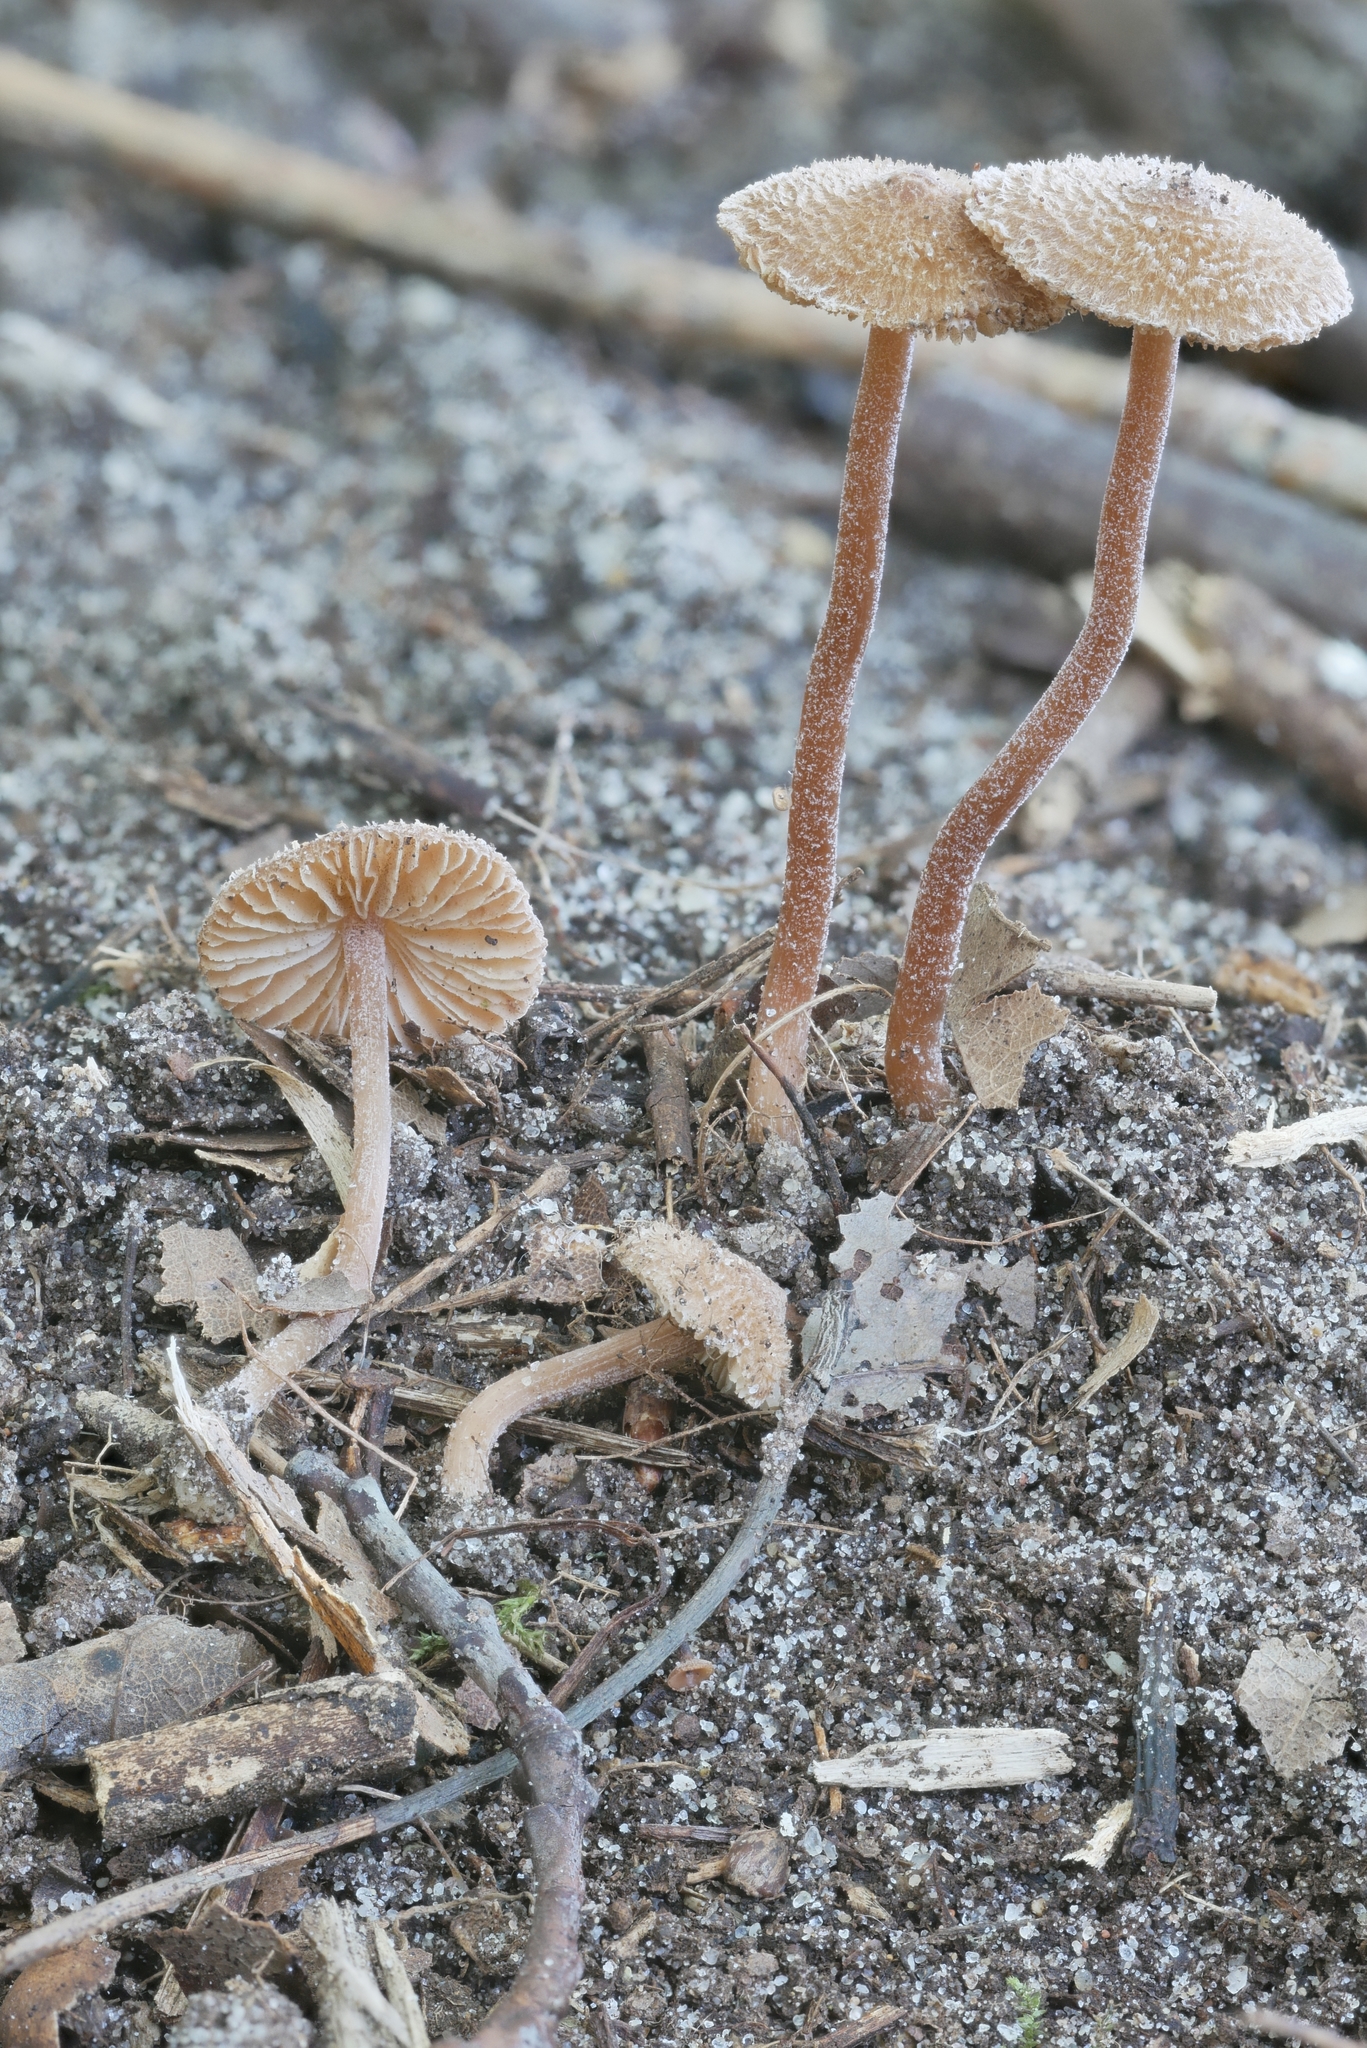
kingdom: Fungi
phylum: Basidiomycota
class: Agaricomycetes
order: Agaricales
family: Inocybaceae
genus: Inocybe
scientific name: Inocybe subfulva
